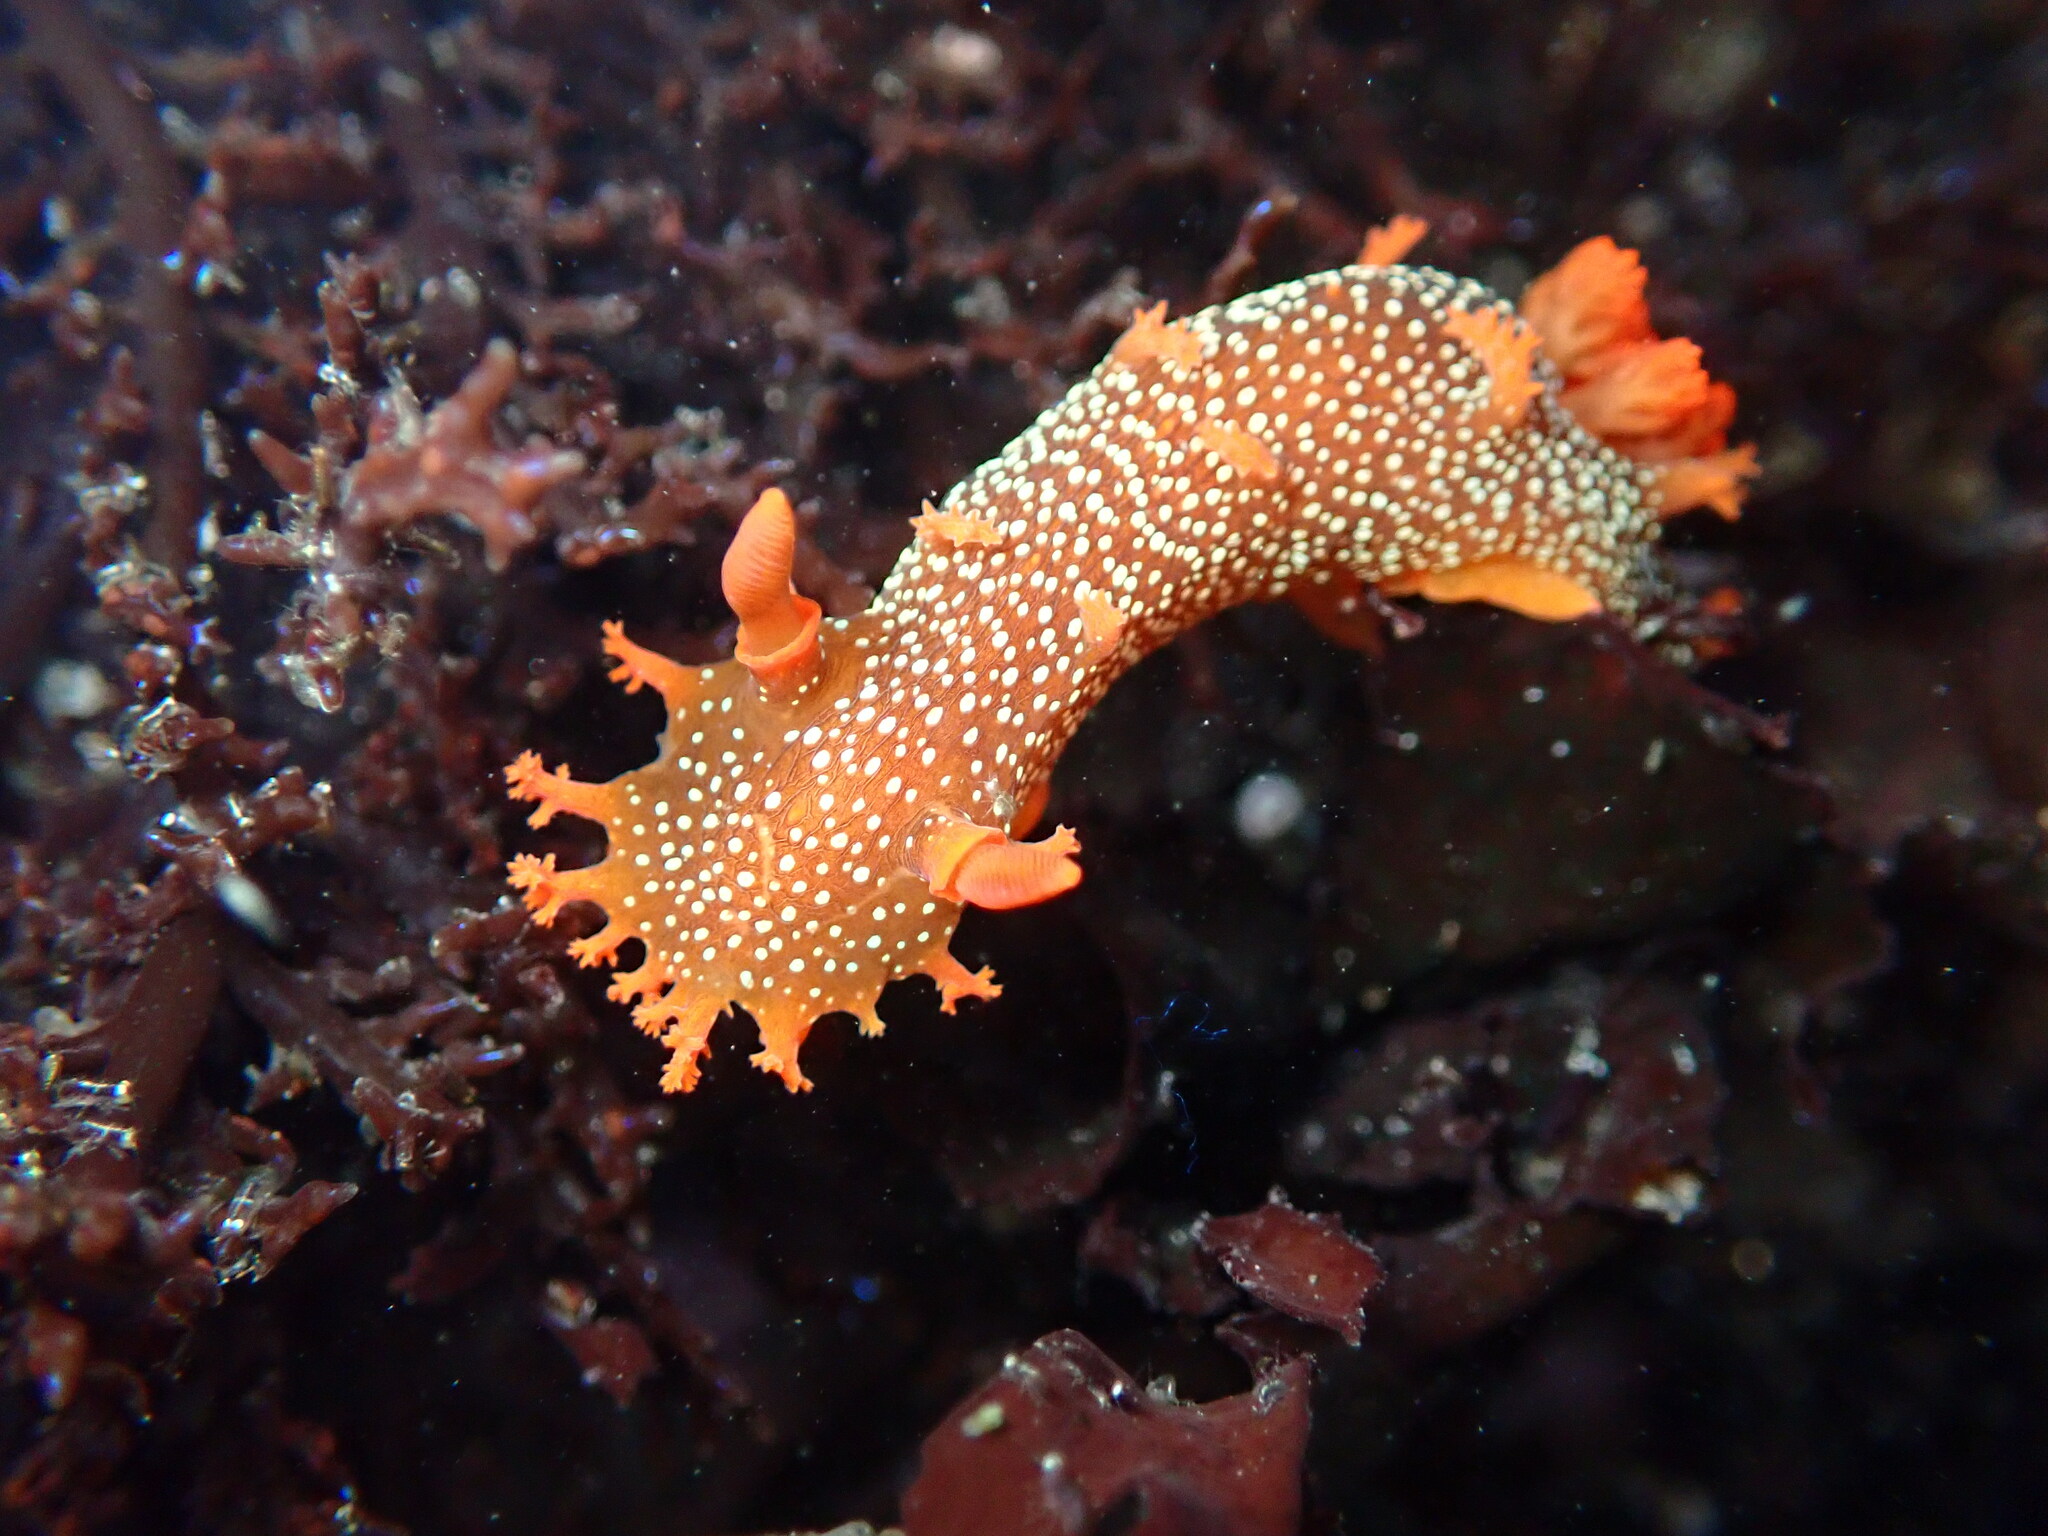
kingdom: Animalia
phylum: Mollusca
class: Gastropoda
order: Nudibranchia
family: Polyceridae
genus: Triopha
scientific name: Triopha maculata
